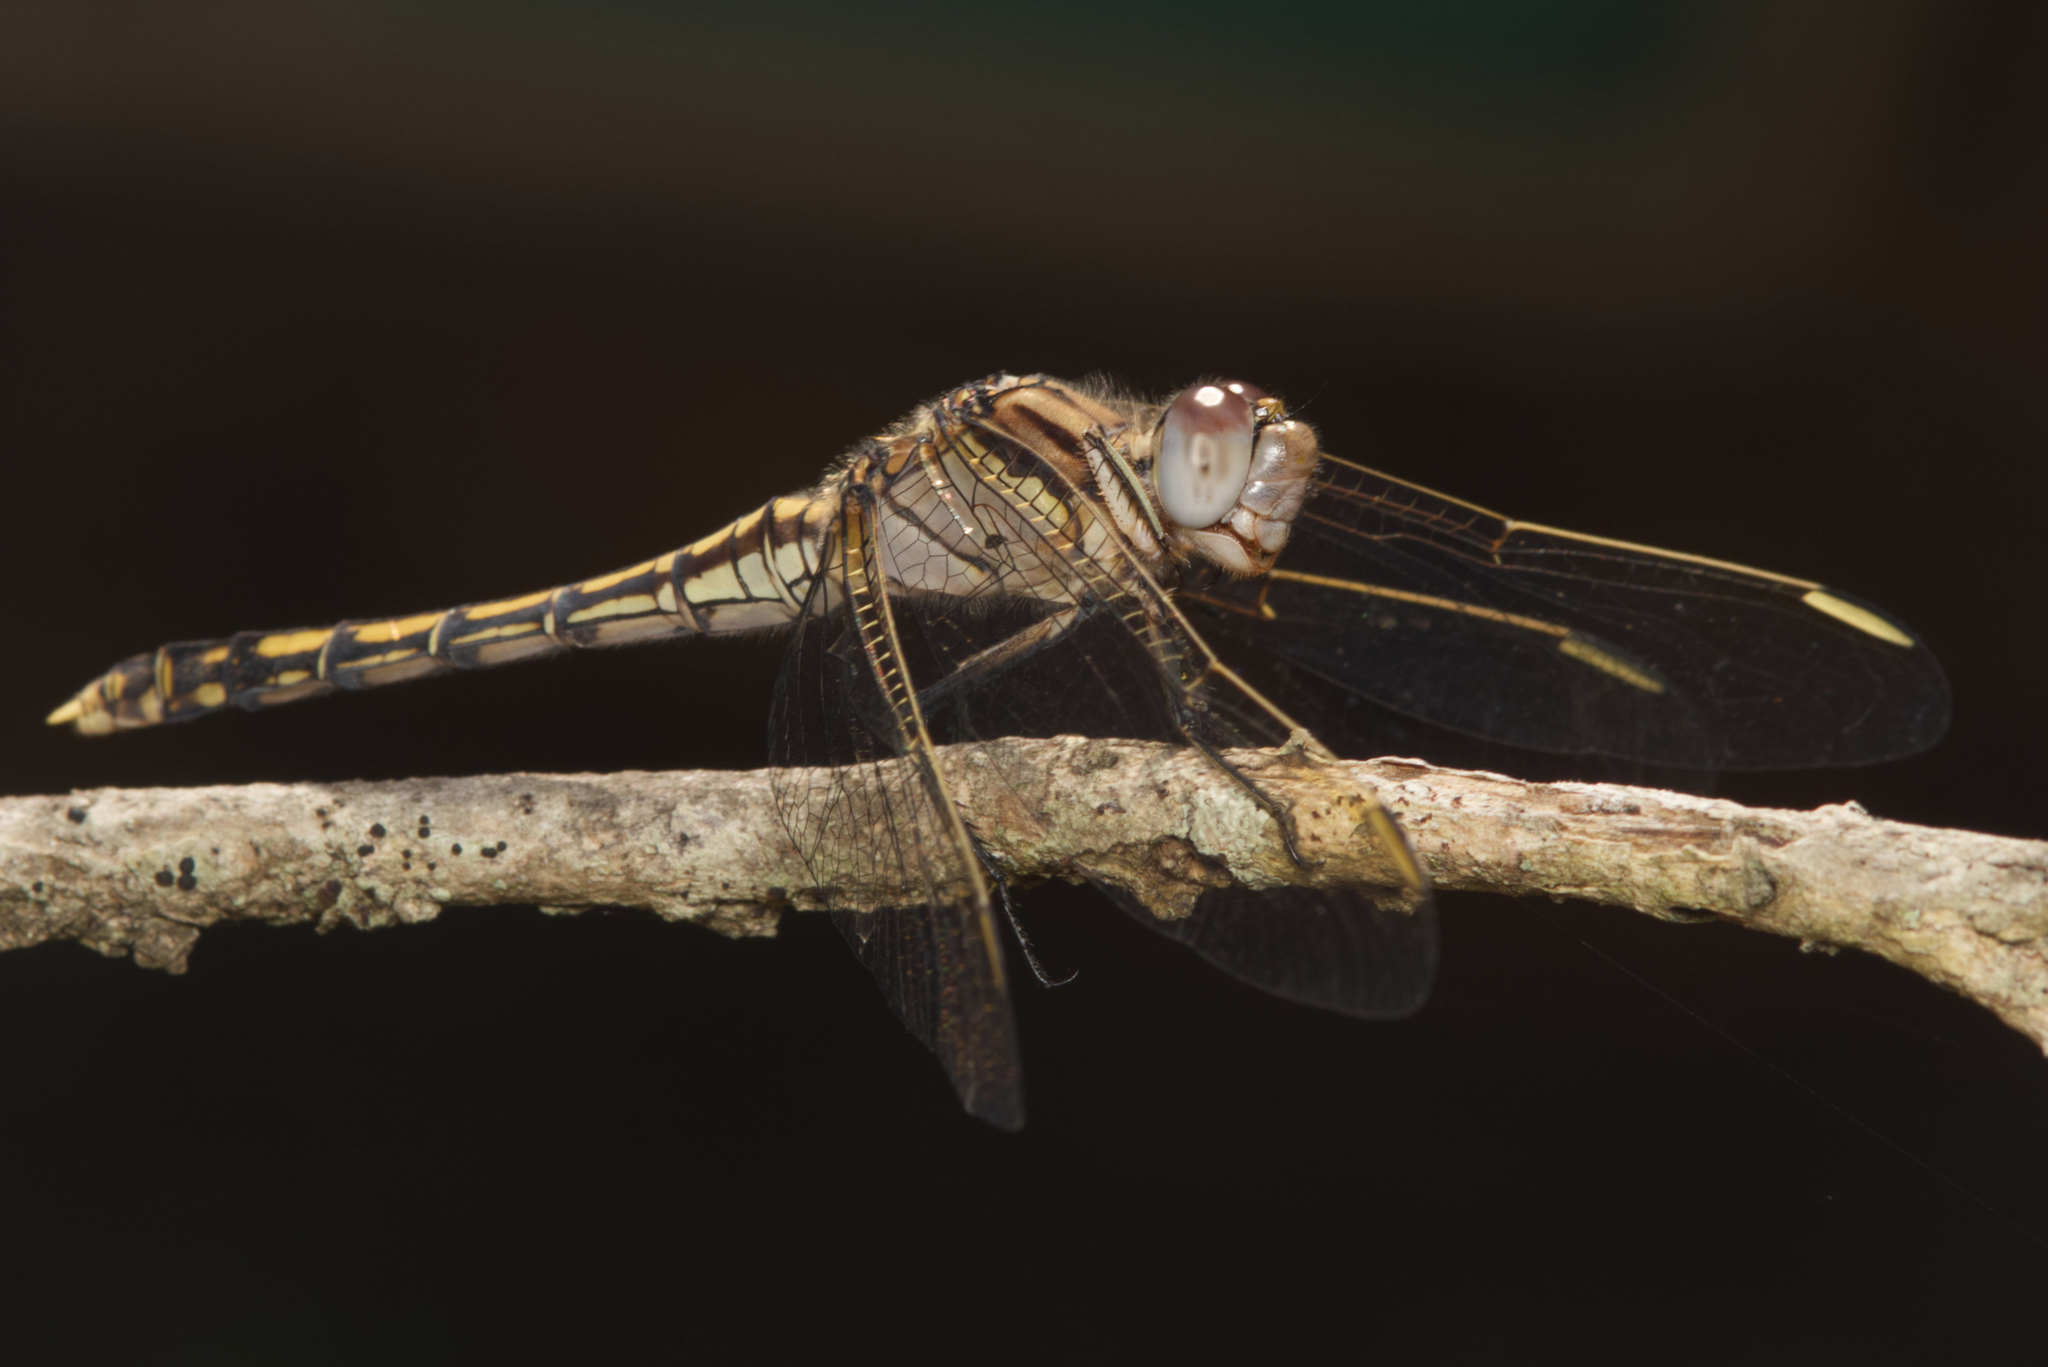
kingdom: Animalia
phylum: Arthropoda
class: Insecta
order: Odonata
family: Libellulidae
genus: Orthetrum
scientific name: Orthetrum caledonicum
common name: Blue skimmer
